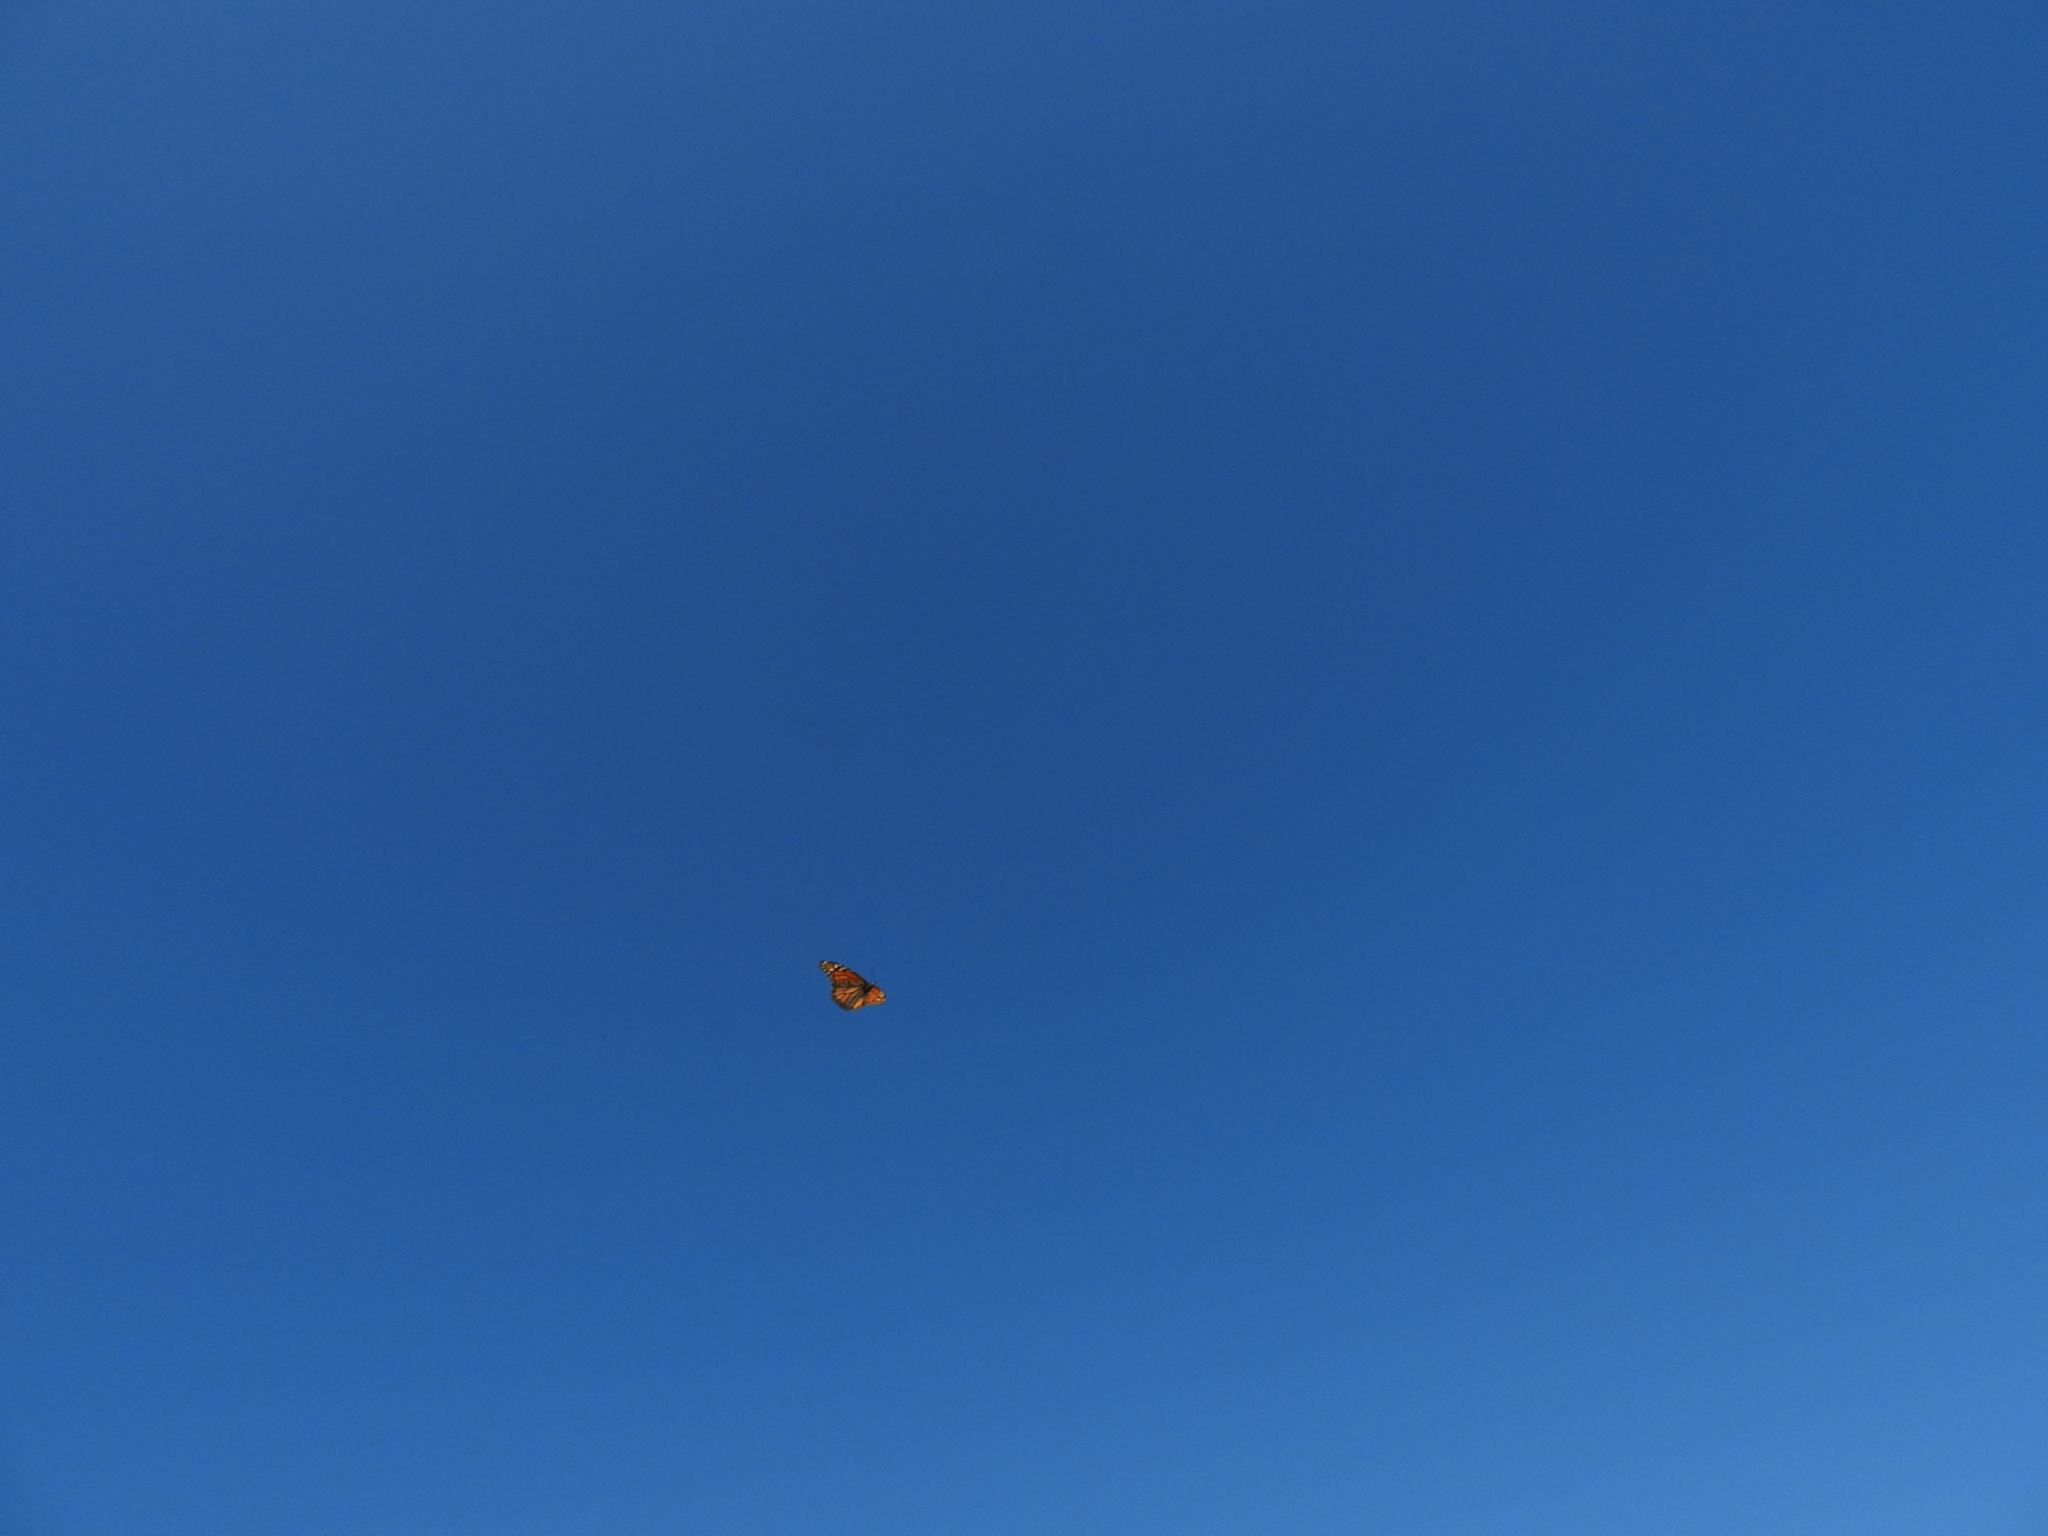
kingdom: Animalia
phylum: Arthropoda
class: Insecta
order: Lepidoptera
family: Nymphalidae
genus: Danaus
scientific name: Danaus plexippus
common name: Monarch
